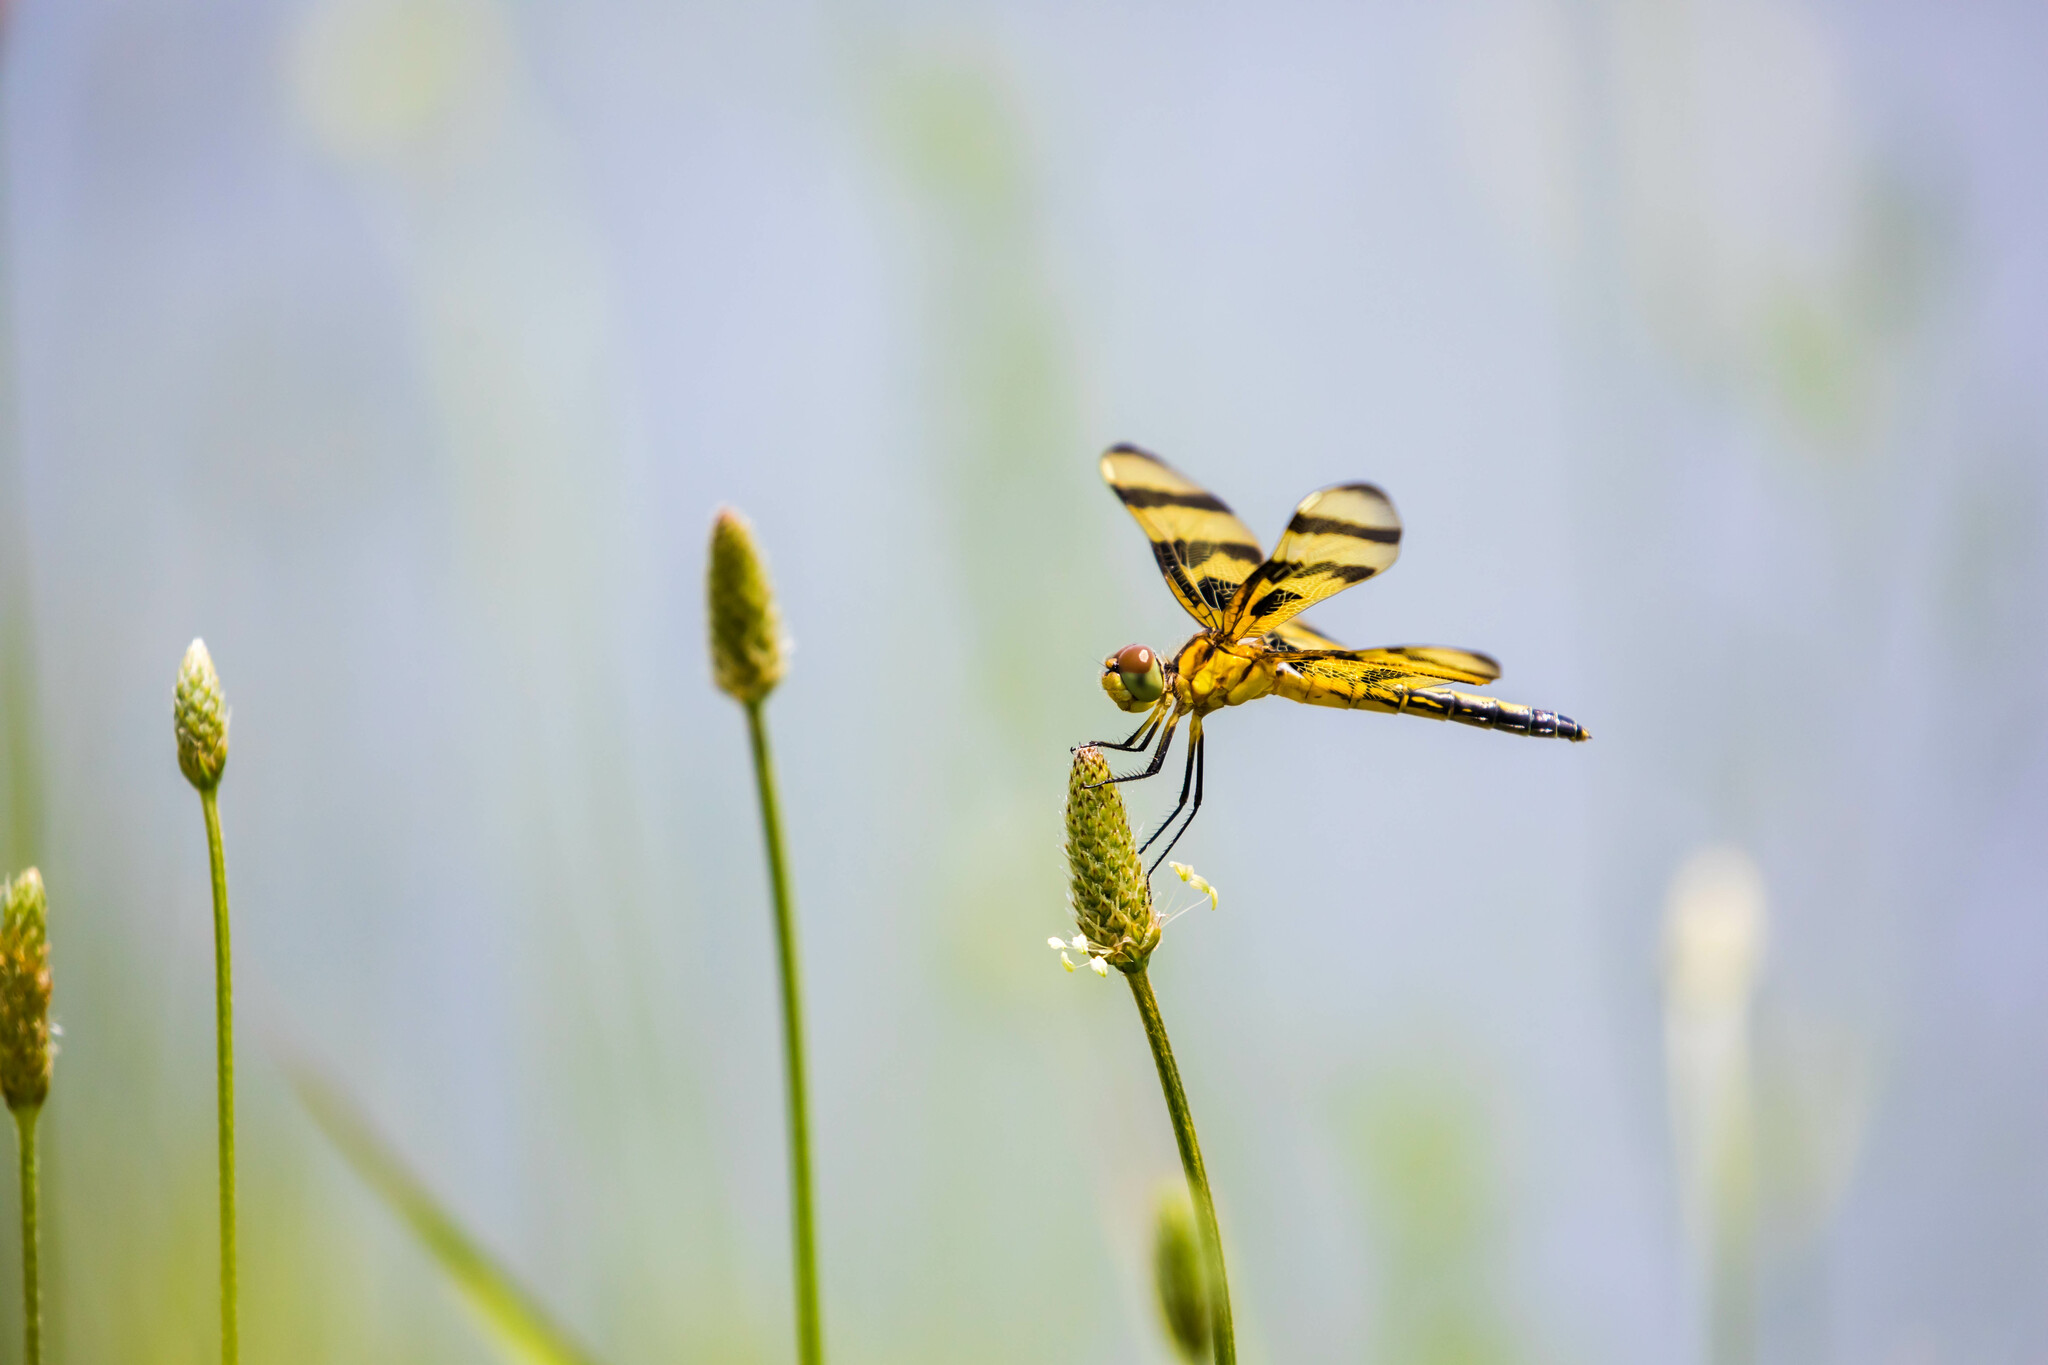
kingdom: Animalia
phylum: Arthropoda
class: Insecta
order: Odonata
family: Libellulidae
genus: Celithemis
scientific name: Celithemis eponina
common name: Halloween pennant
